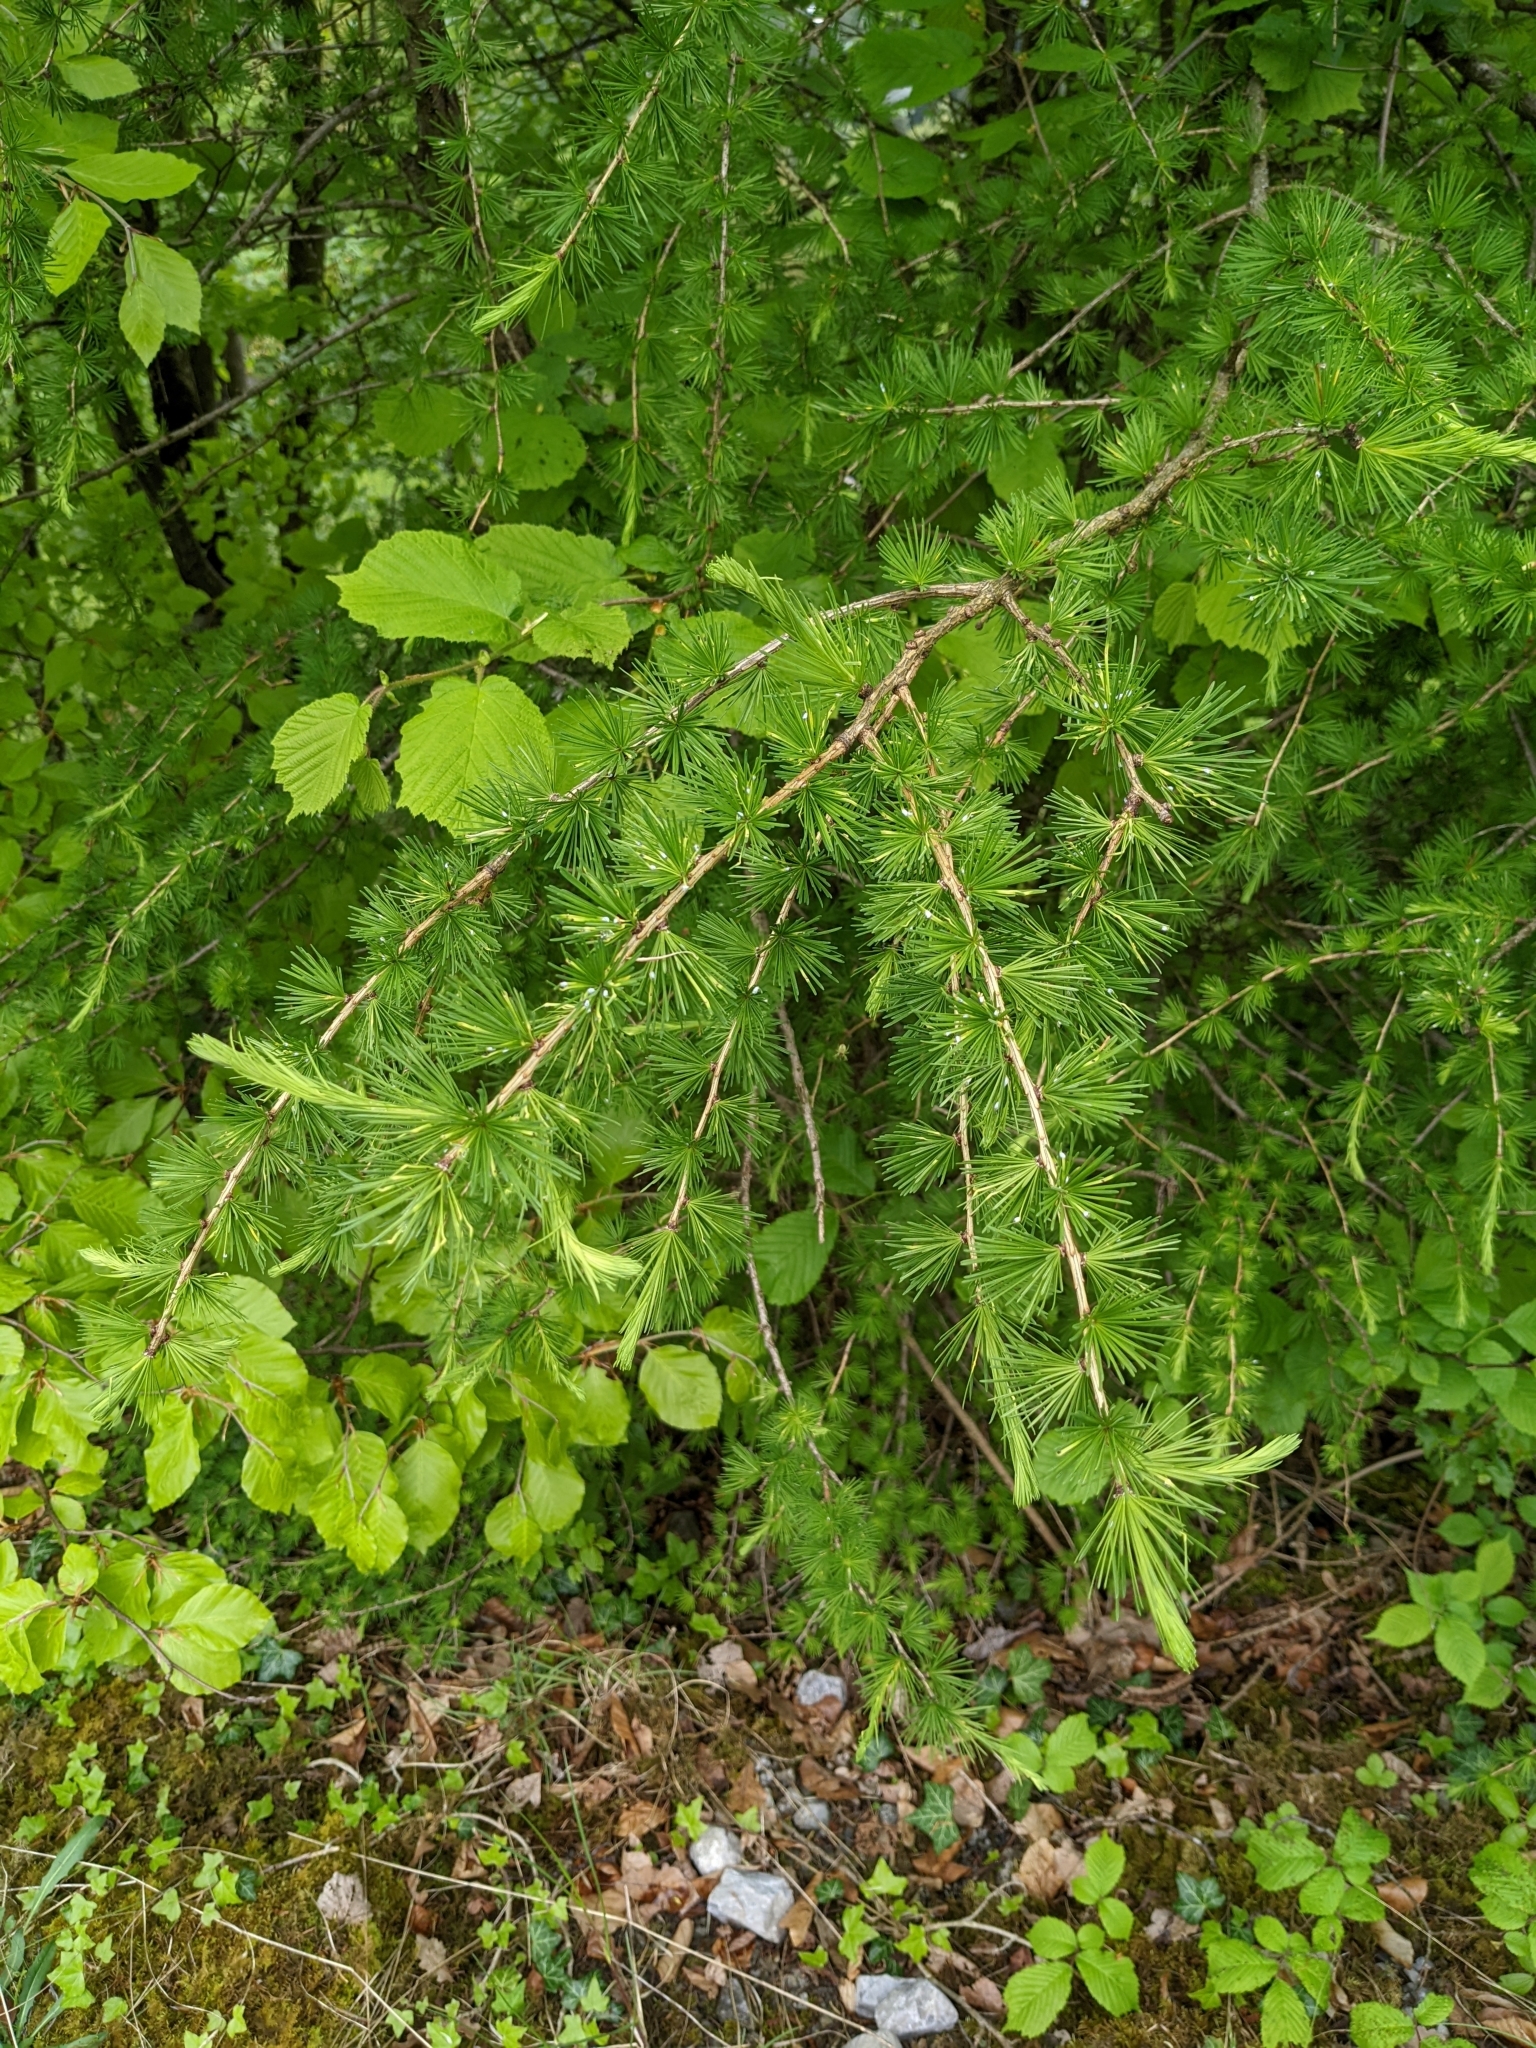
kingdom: Plantae
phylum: Tracheophyta
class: Pinopsida
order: Pinales
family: Pinaceae
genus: Larix
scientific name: Larix decidua
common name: European larch
